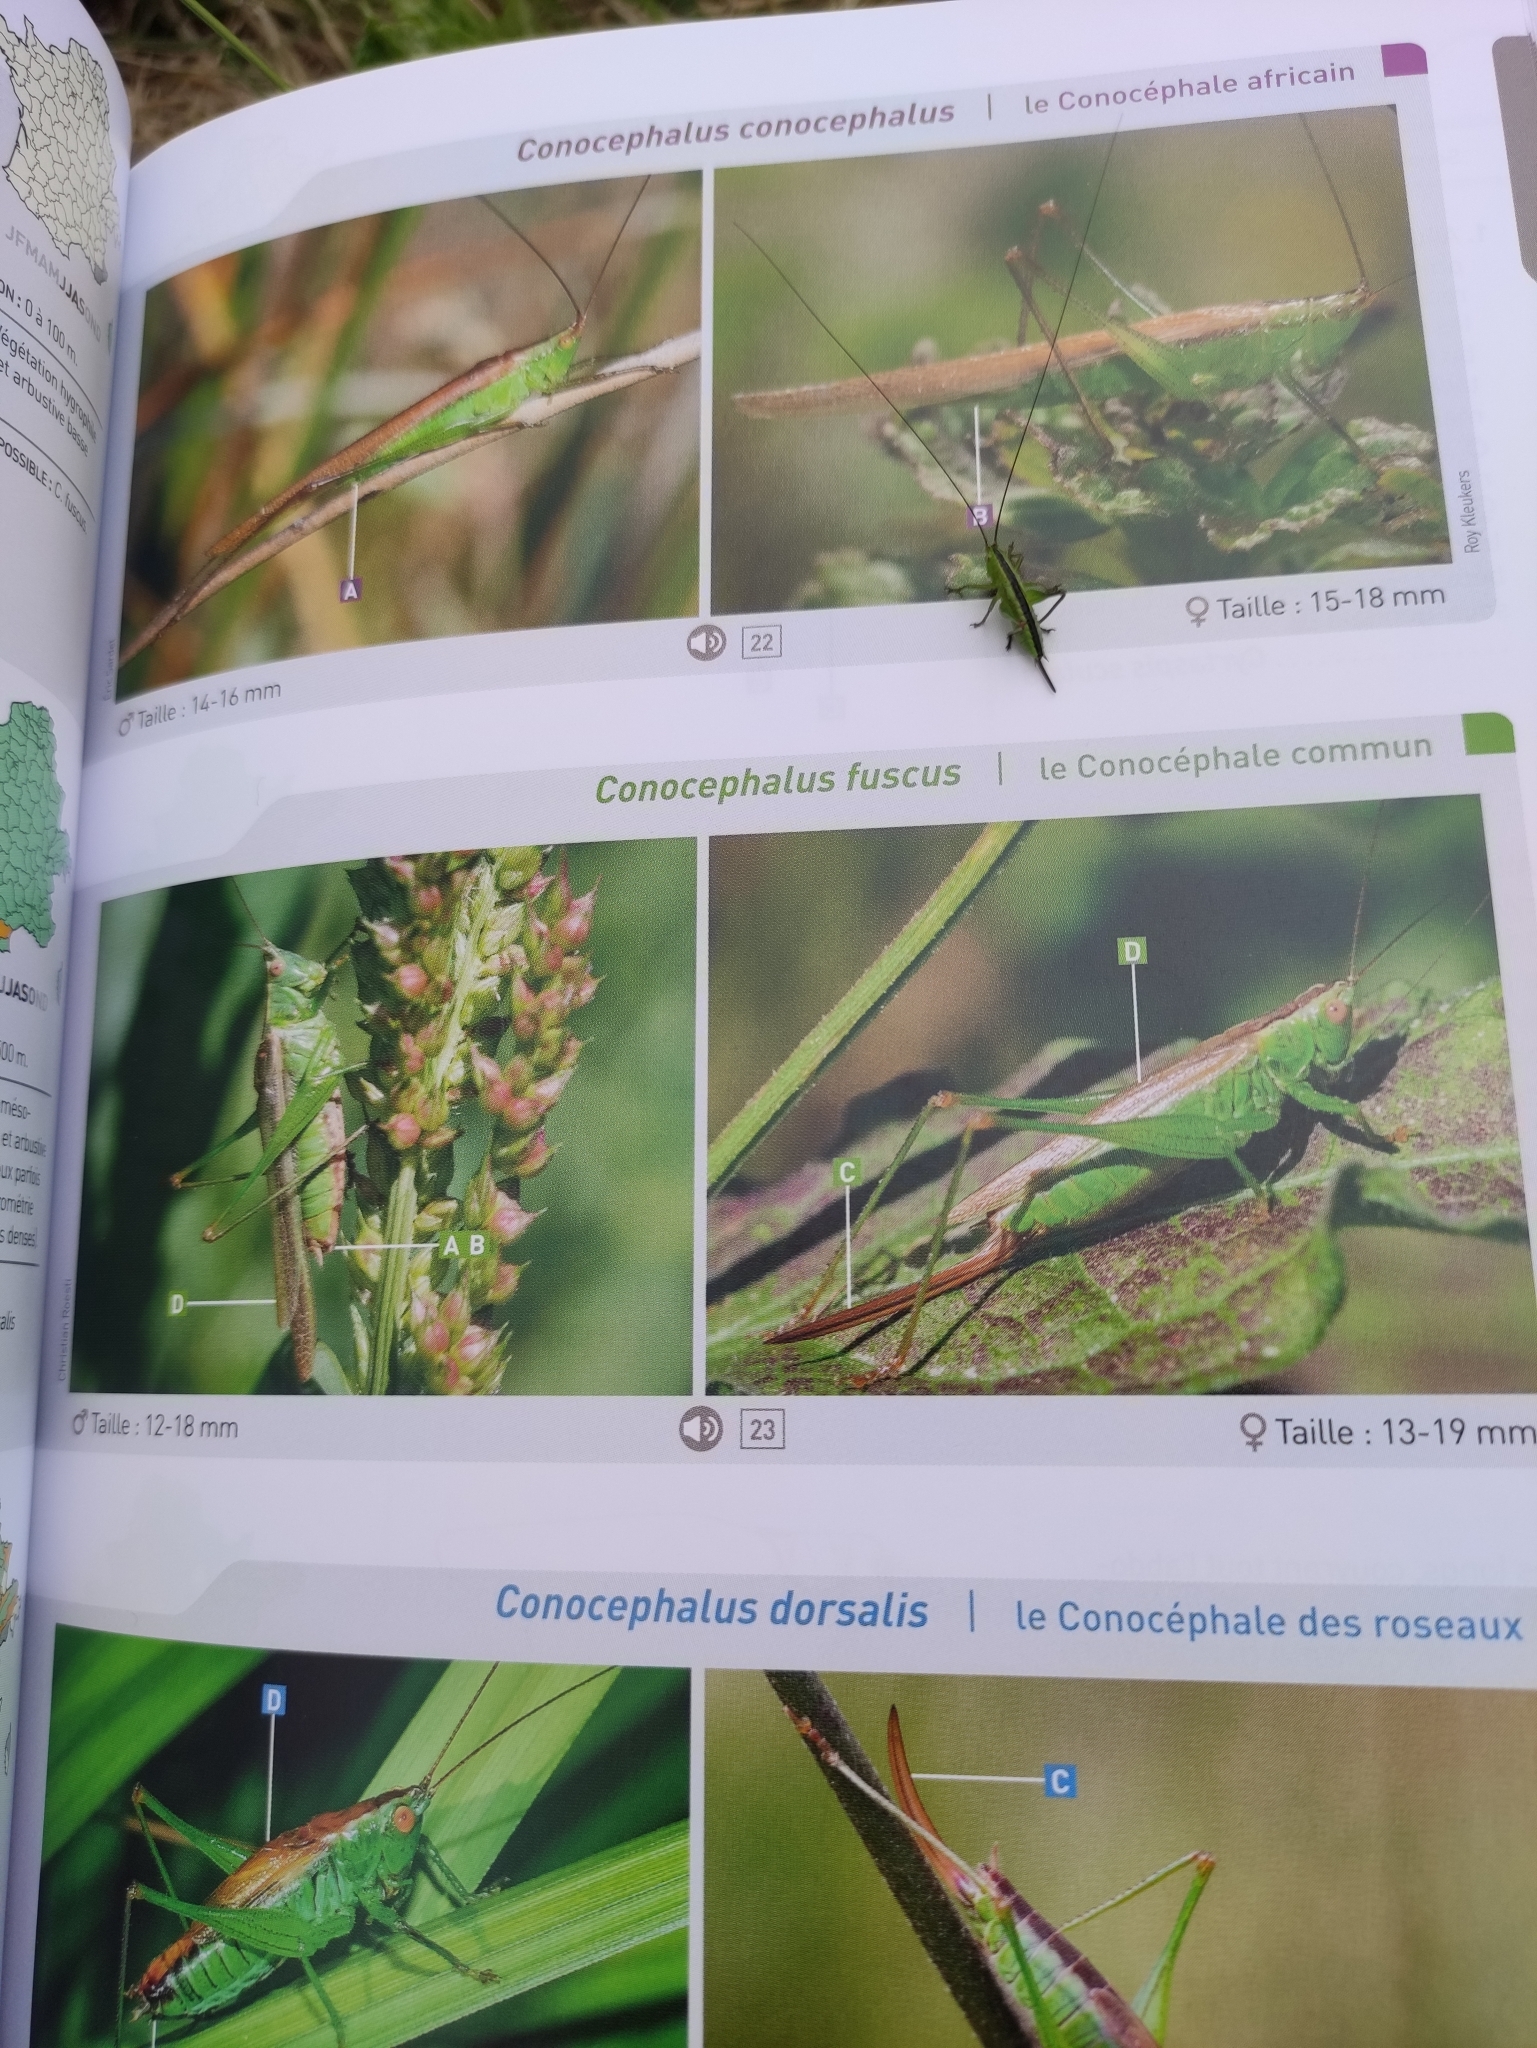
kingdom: Animalia
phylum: Arthropoda
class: Insecta
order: Orthoptera
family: Tettigoniidae
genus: Conocephalus
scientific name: Conocephalus fuscus
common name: Long-winged conehead
